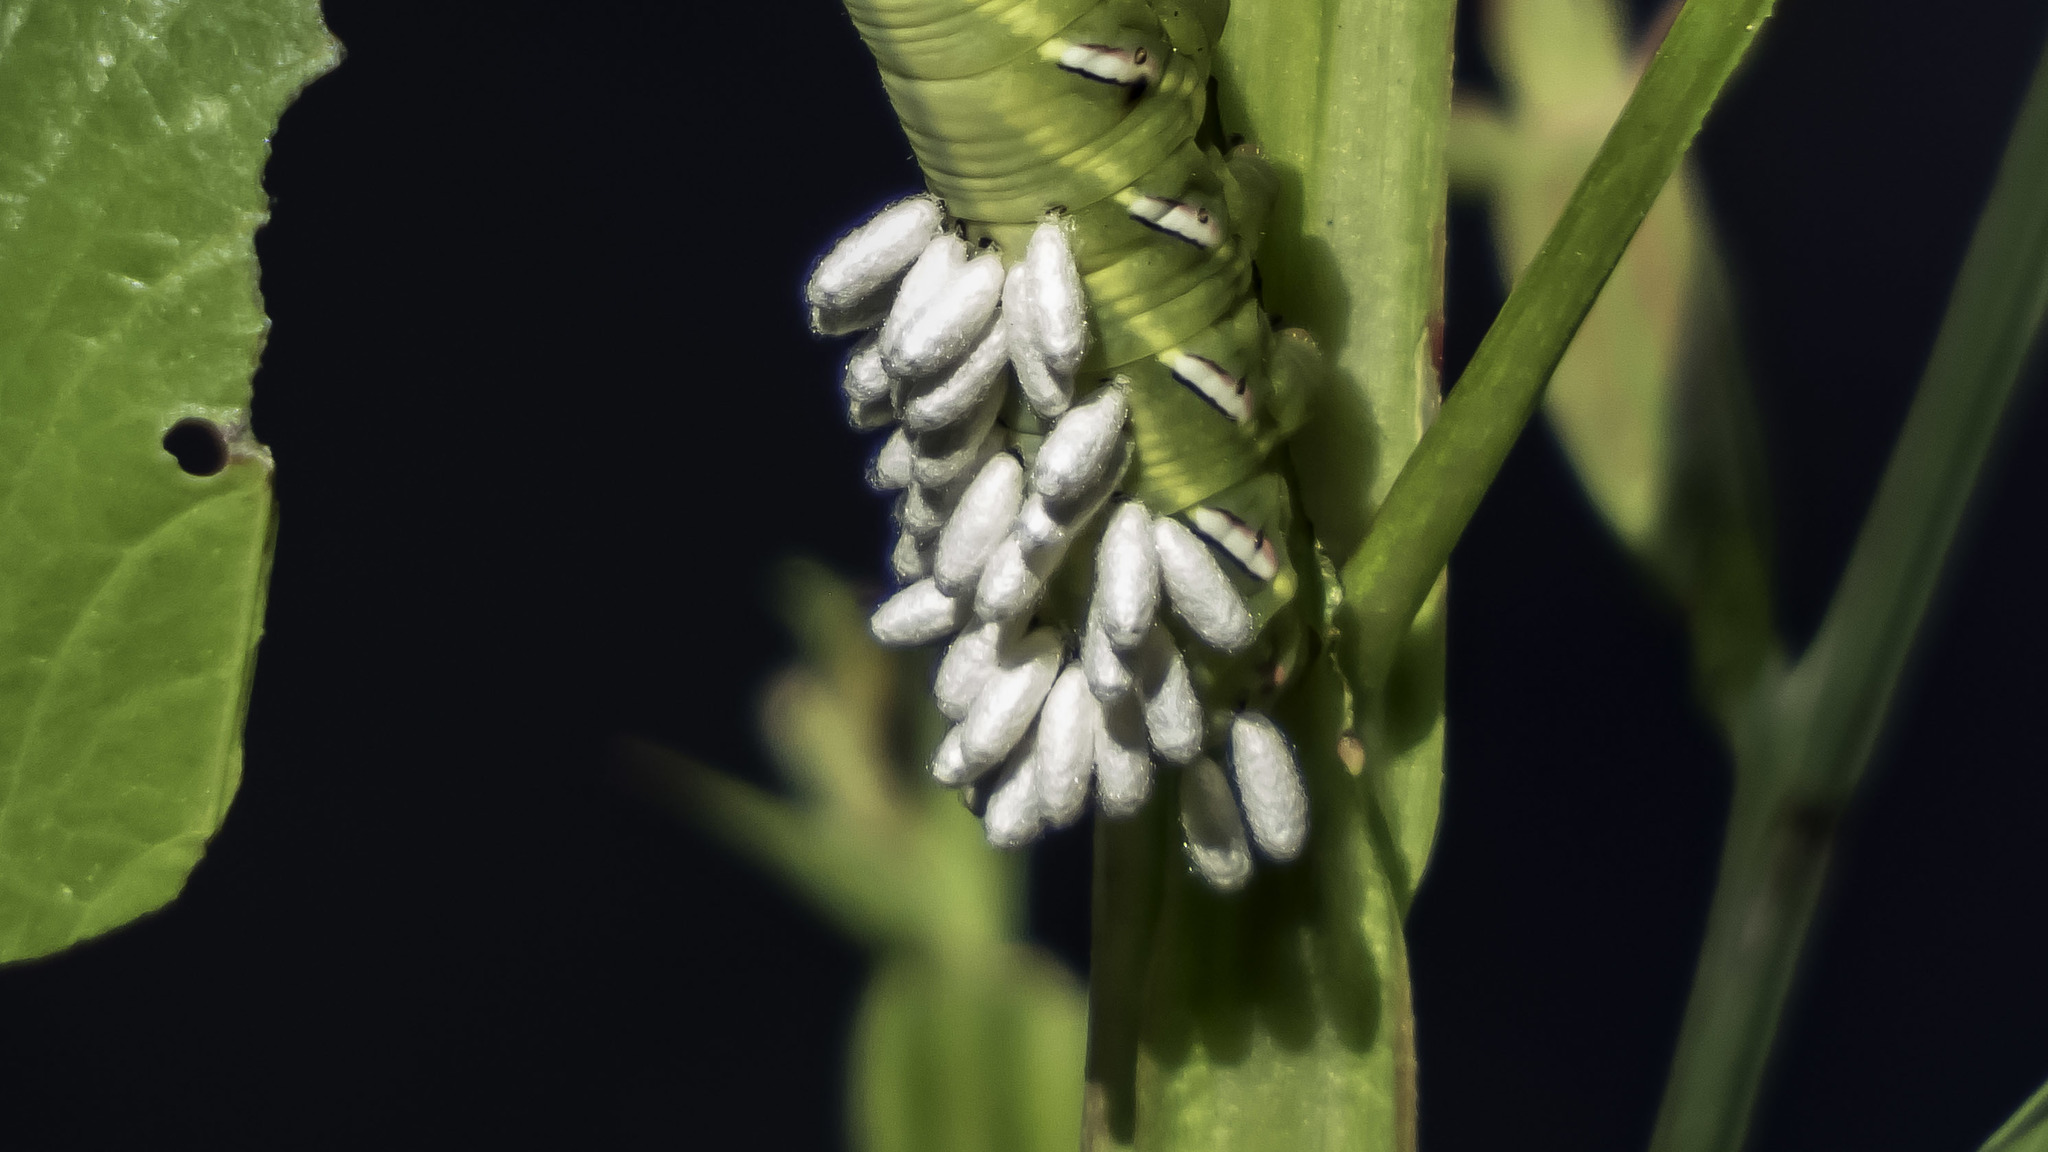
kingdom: Animalia
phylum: Arthropoda
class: Insecta
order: Hymenoptera
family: Braconidae
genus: Cotesia
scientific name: Cotesia congregata
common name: Hornworm parasitoid wasp
